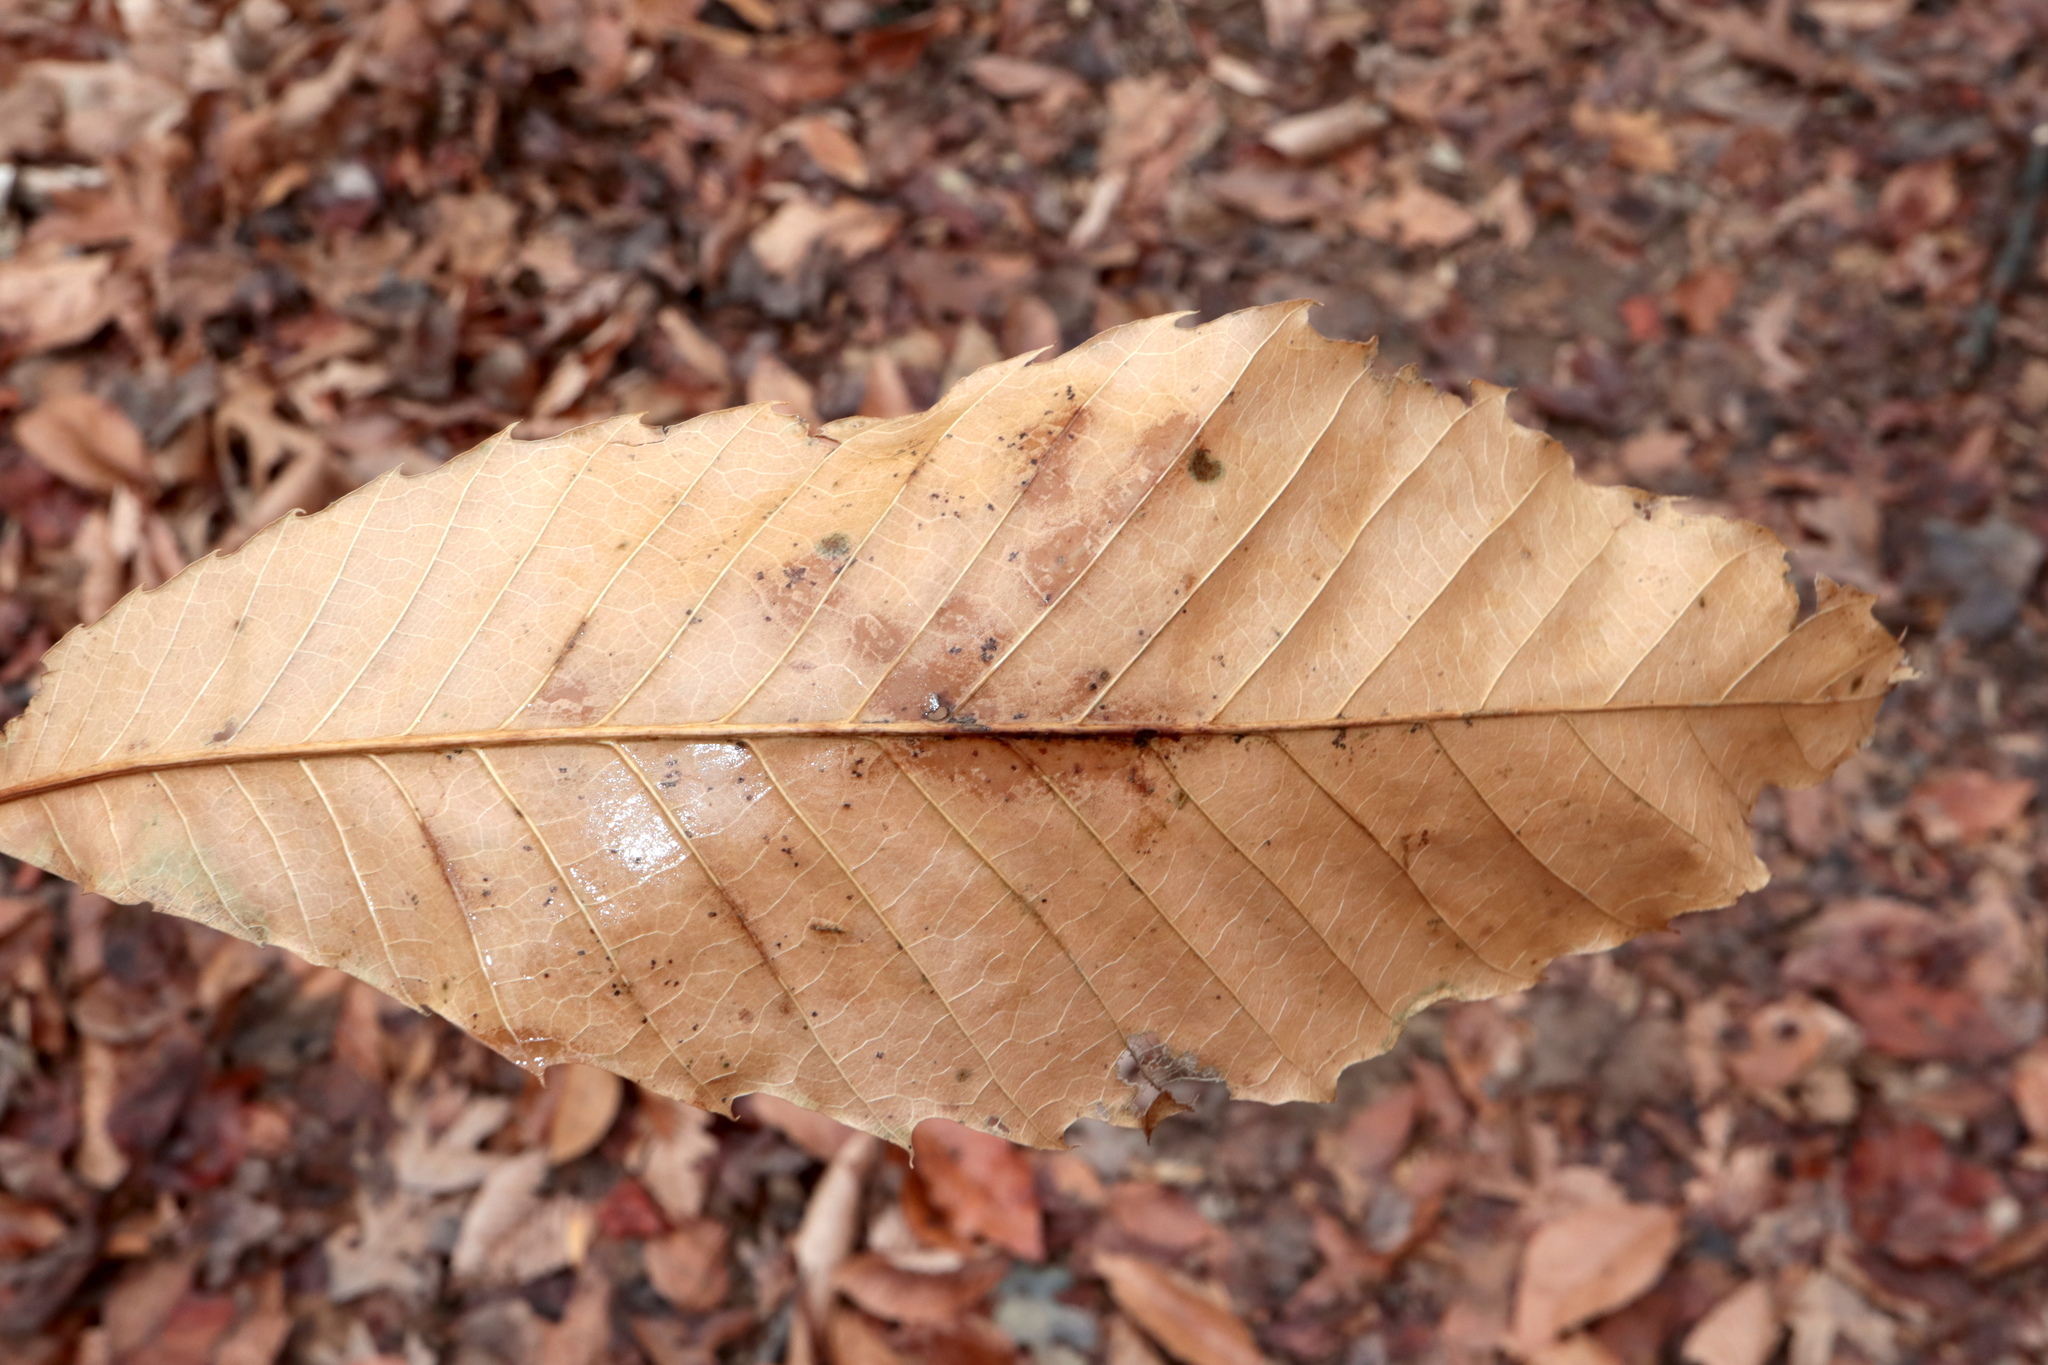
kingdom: Plantae
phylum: Tracheophyta
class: Magnoliopsida
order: Fagales
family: Fagaceae
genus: Castanea
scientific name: Castanea dentata
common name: American chestnut
